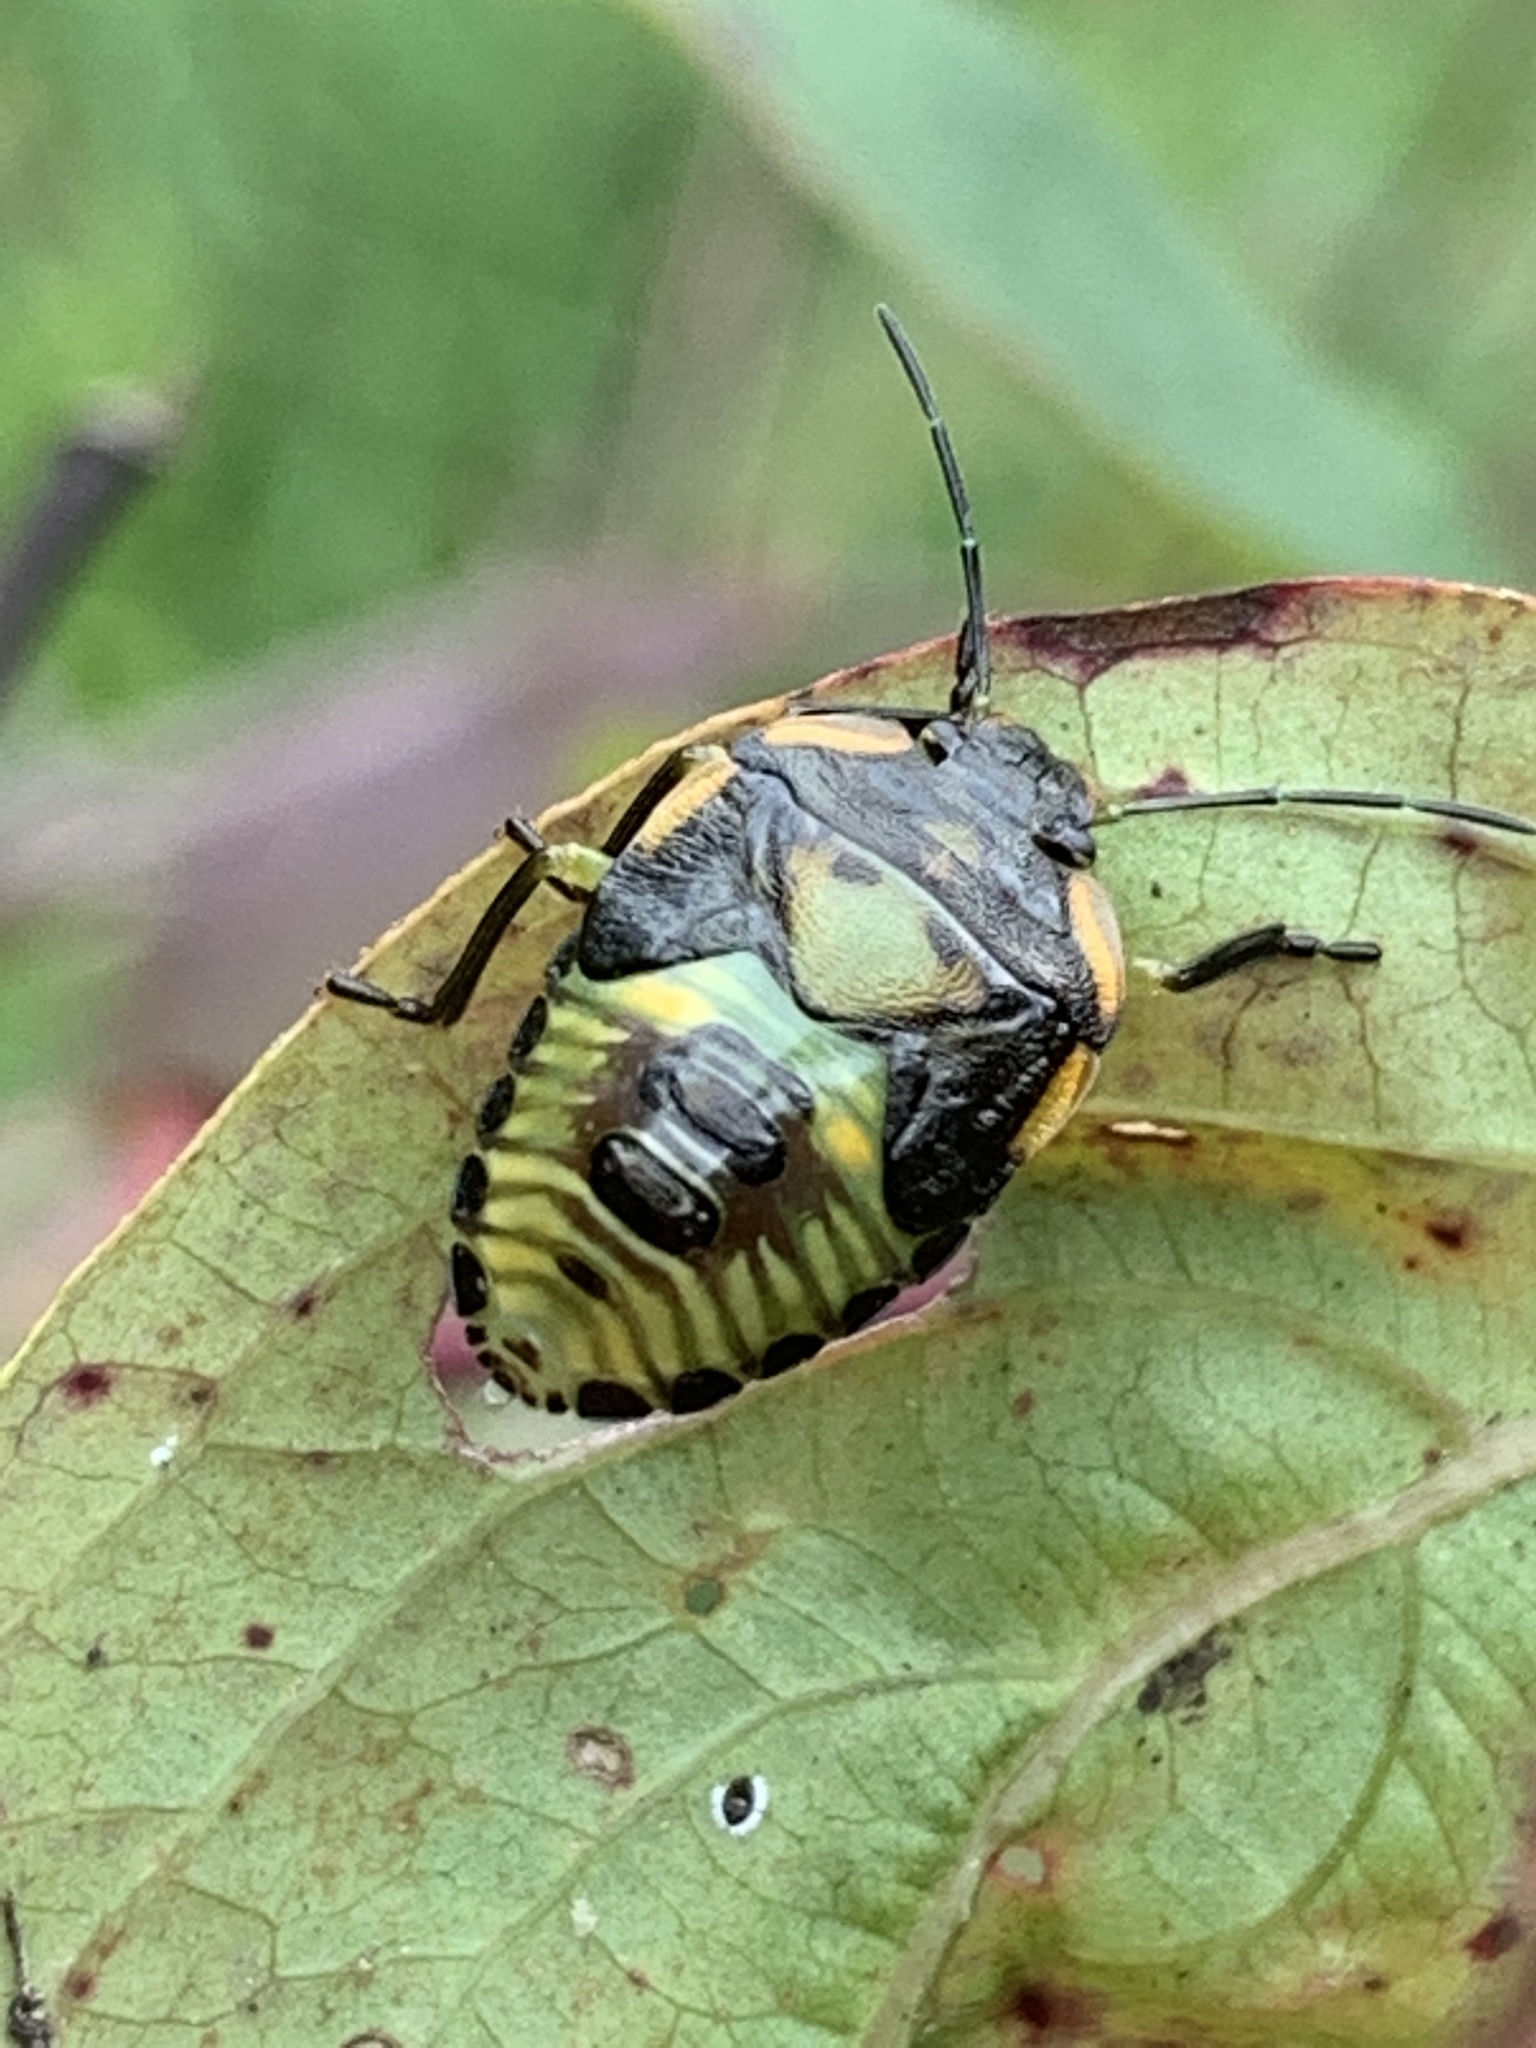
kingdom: Animalia
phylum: Arthropoda
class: Insecta
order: Hemiptera
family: Pentatomidae
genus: Chinavia
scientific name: Chinavia hilaris
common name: Green stink bug
